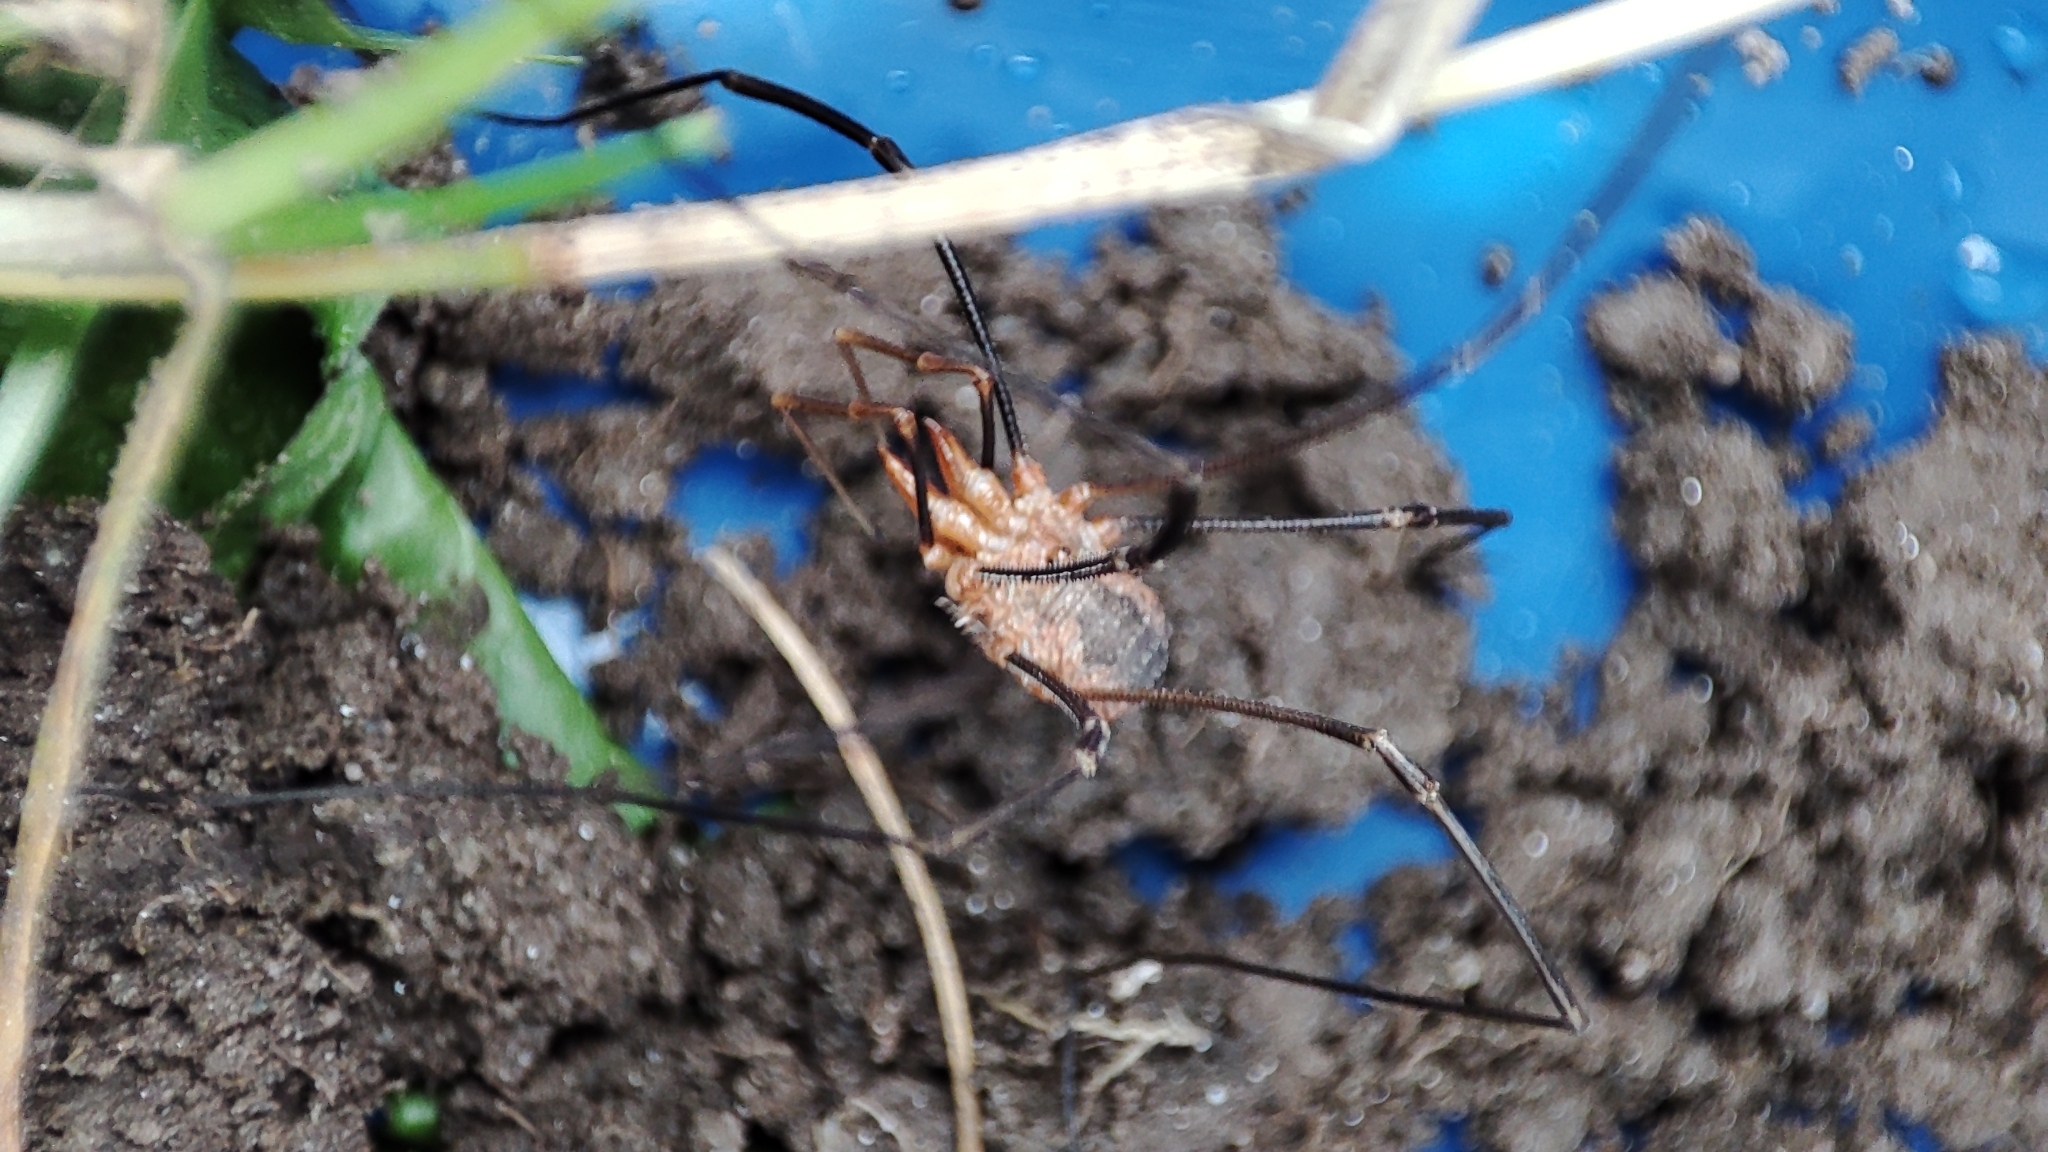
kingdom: Animalia
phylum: Arthropoda
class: Arachnida
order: Opiliones
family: Phalangiidae
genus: Phalangium
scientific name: Phalangium opilio
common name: Daddy longleg
